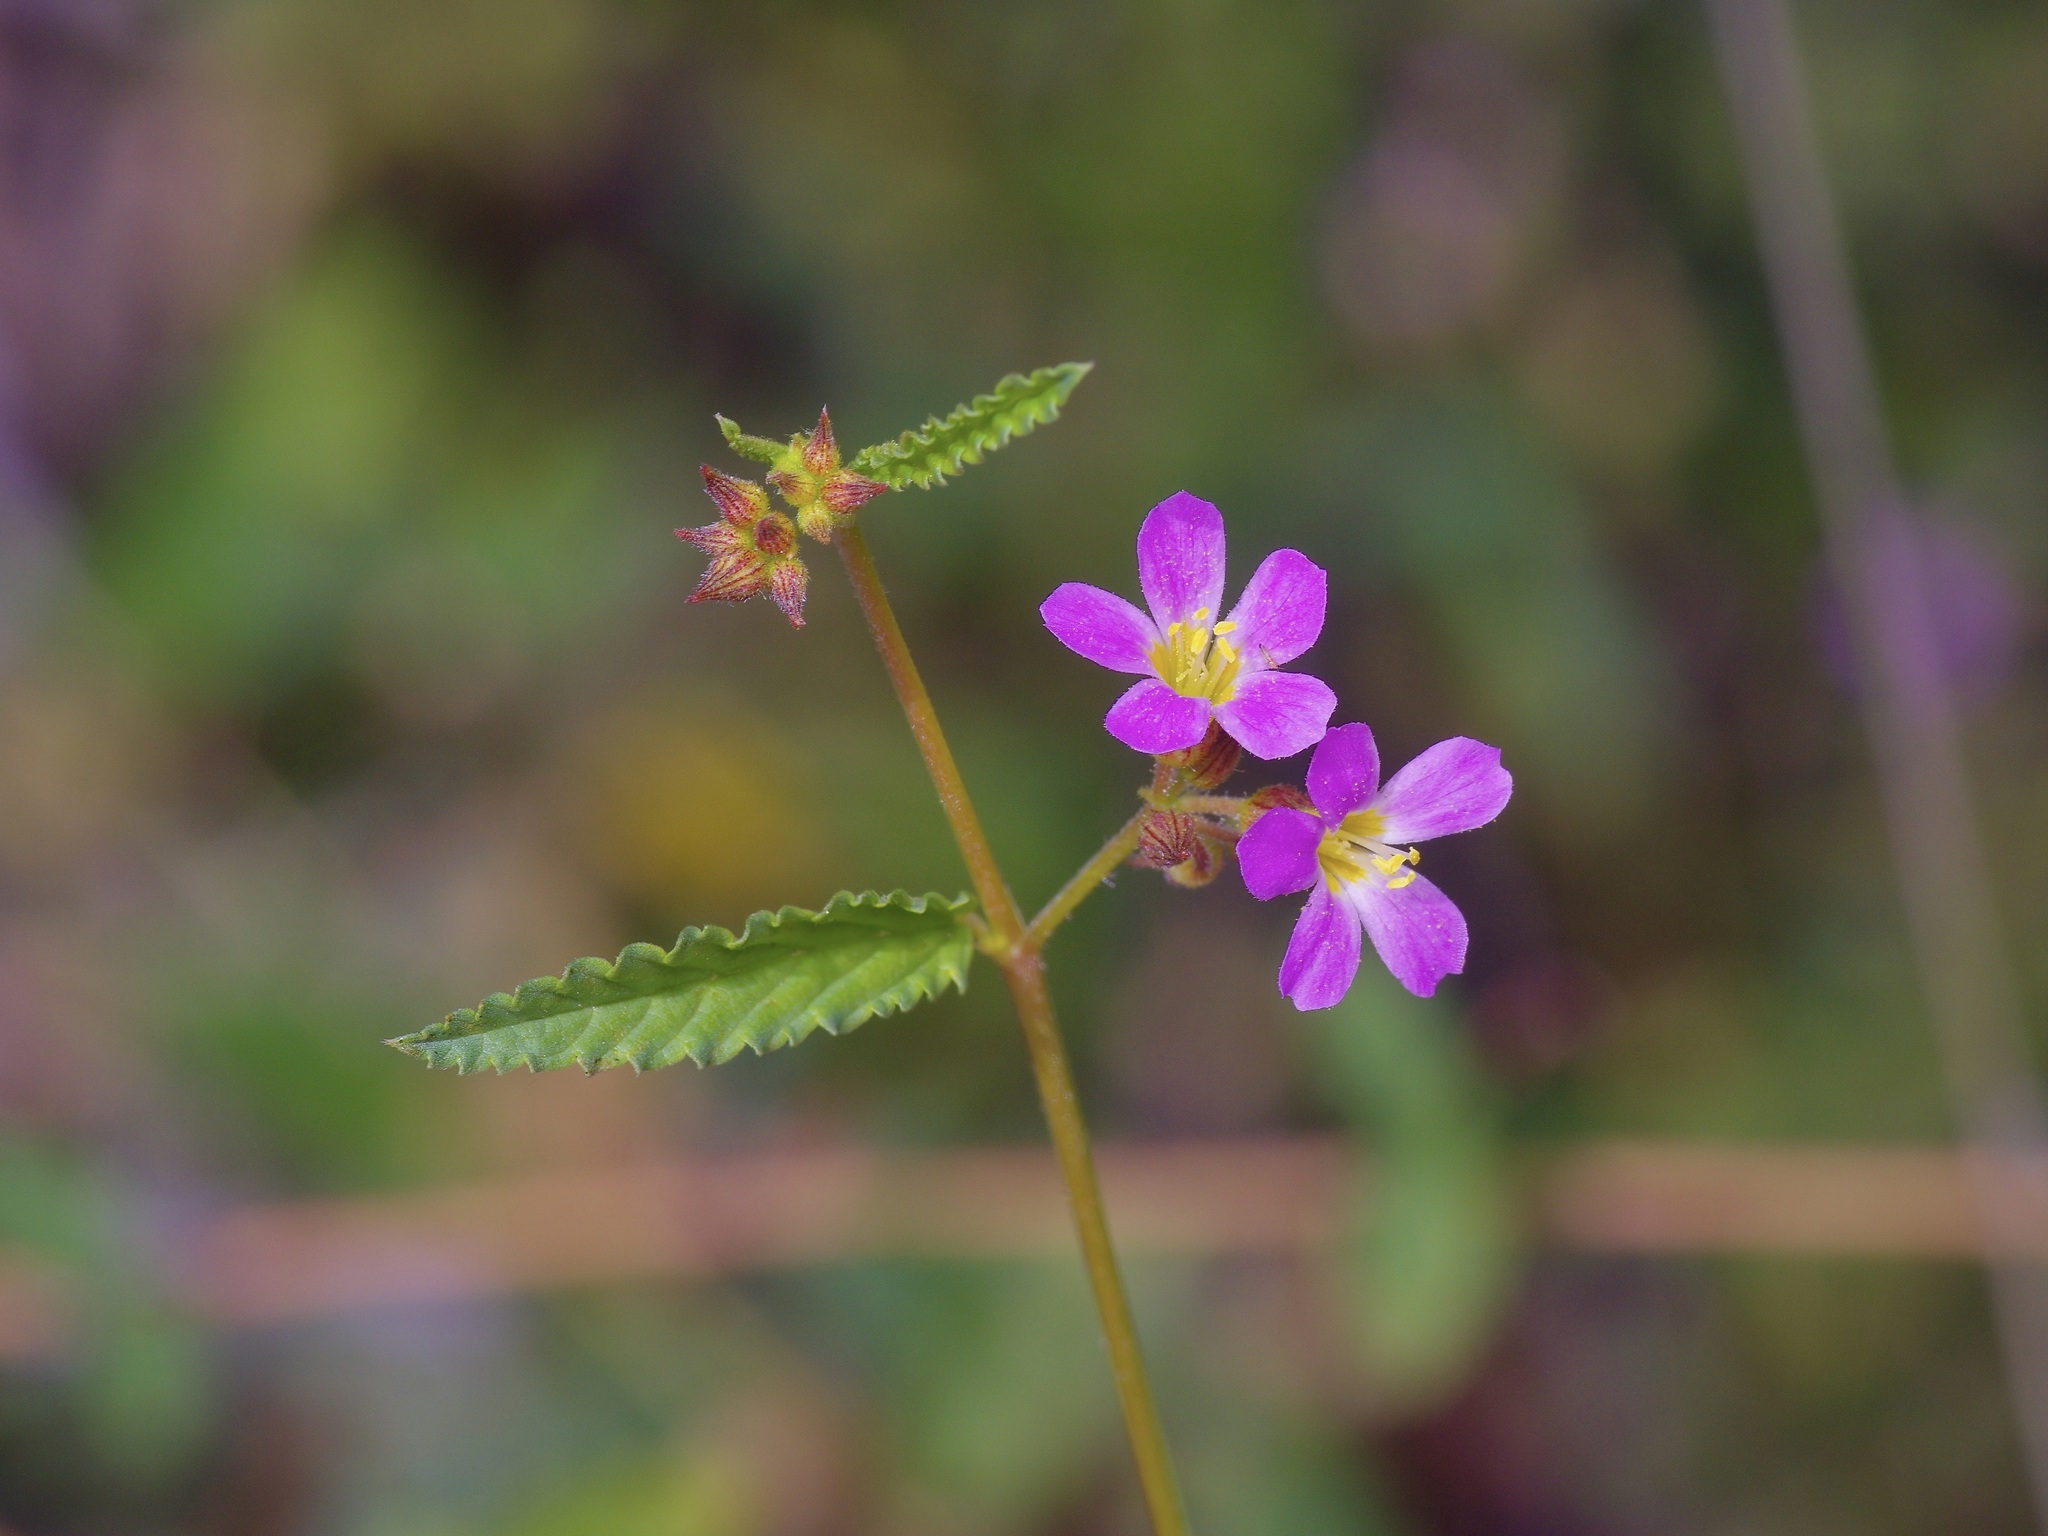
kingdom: Plantae
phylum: Tracheophyta
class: Magnoliopsida
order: Malvales
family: Malvaceae
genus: Melochia
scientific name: Melochia pyramidata
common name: Pyramidflower
